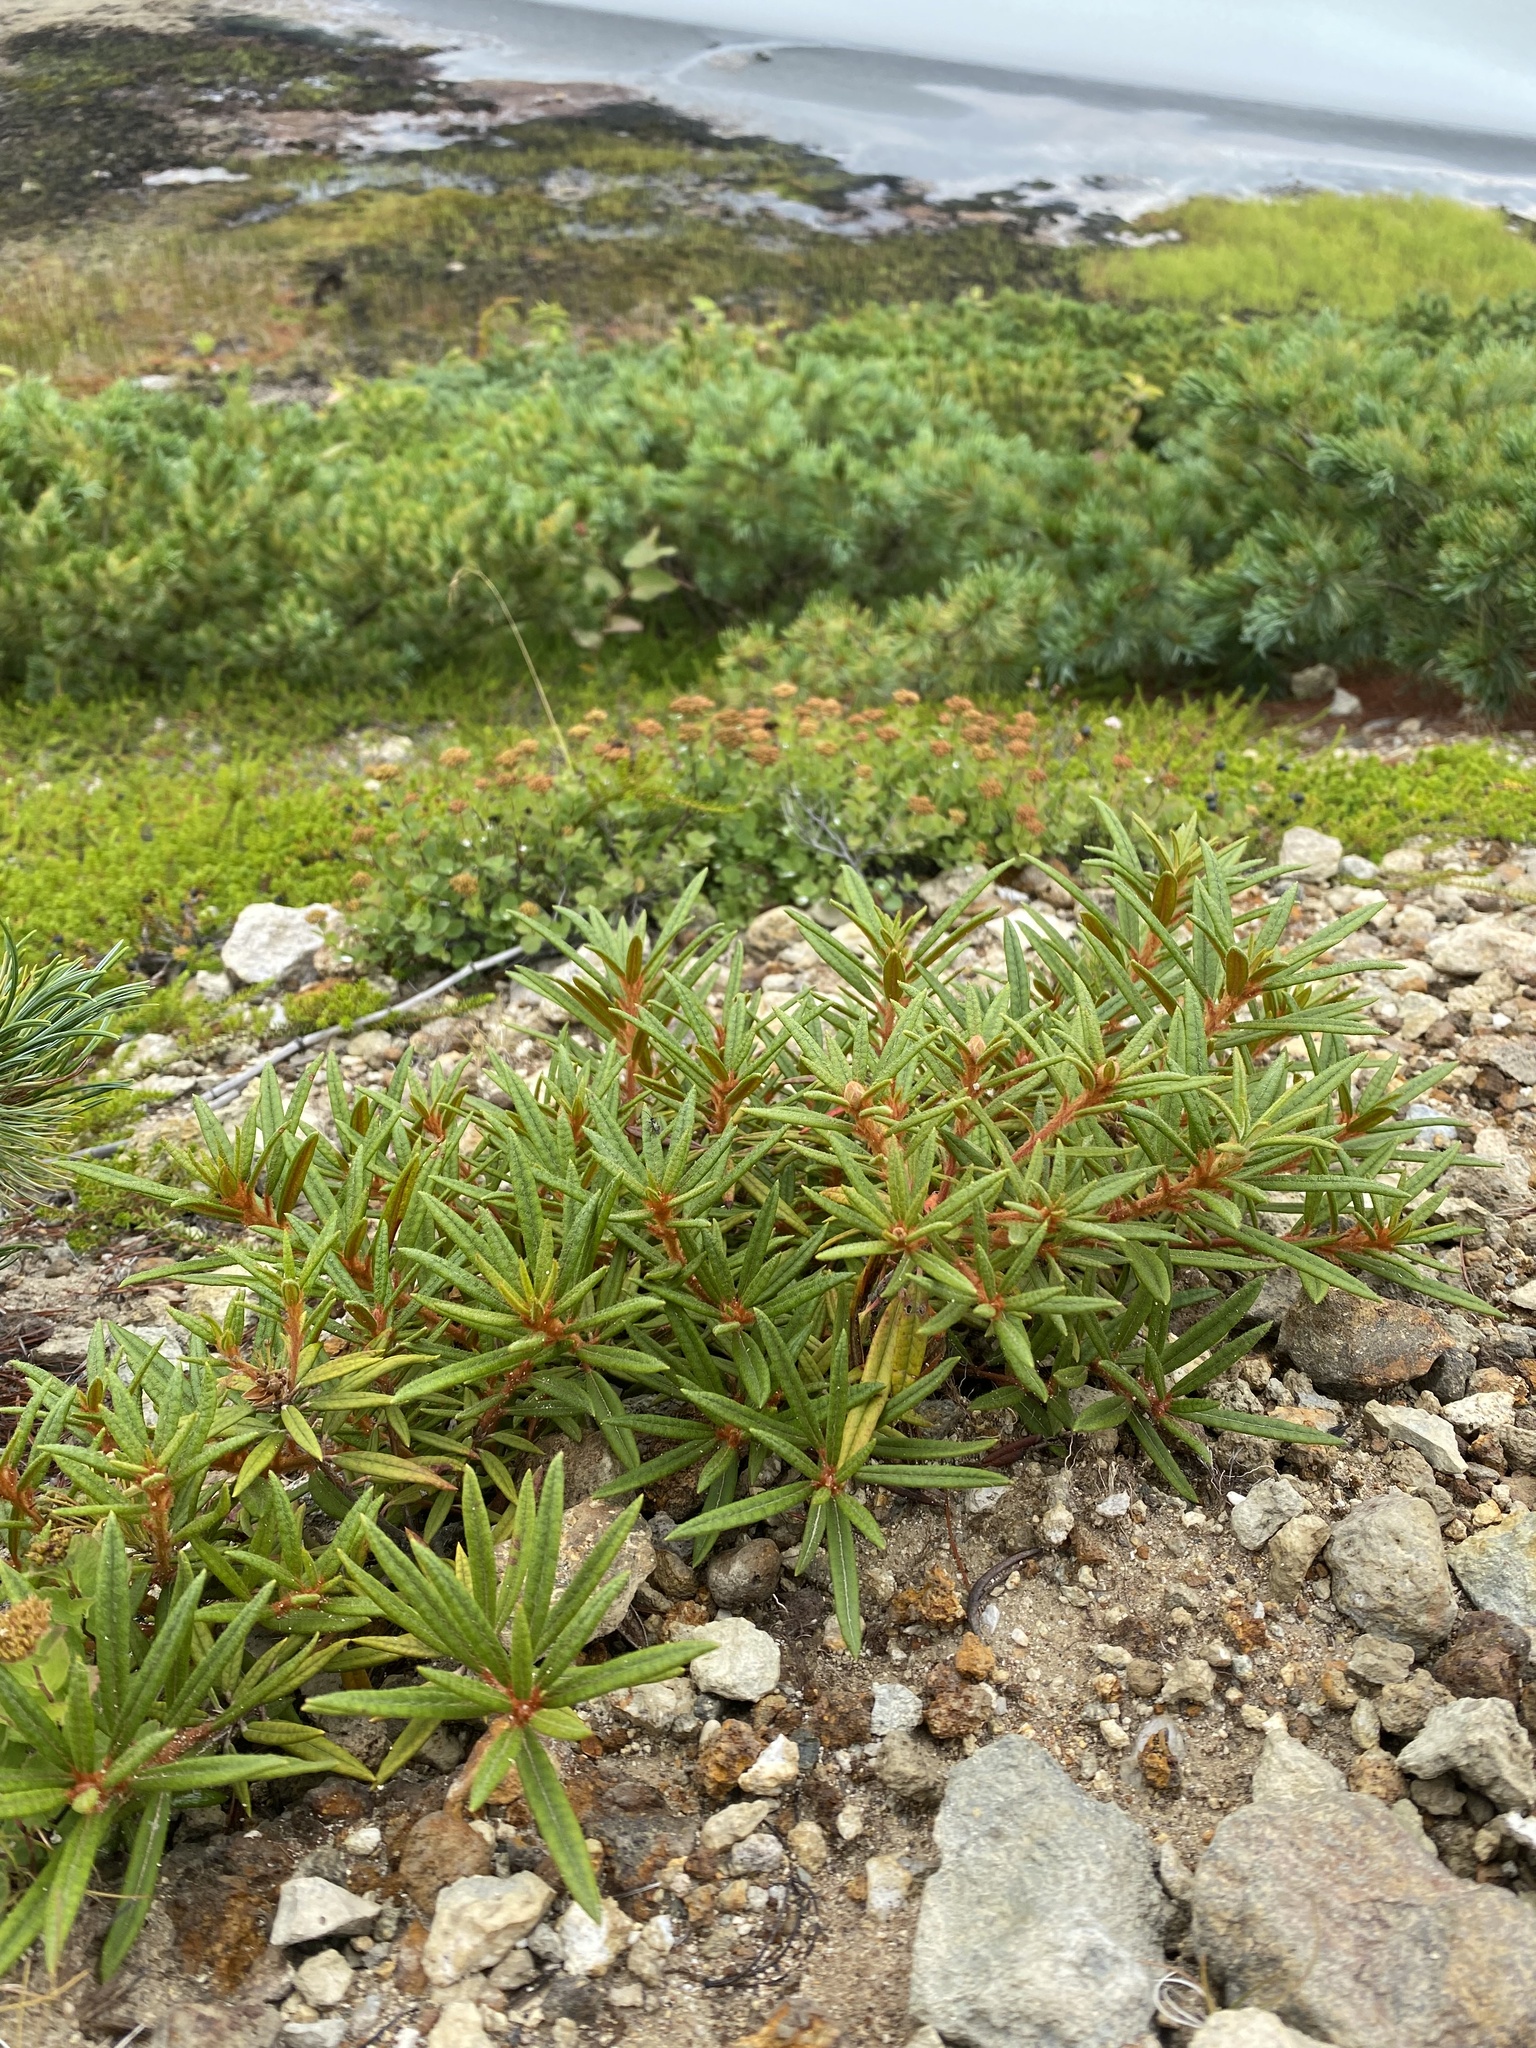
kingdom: Plantae
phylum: Tracheophyta
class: Magnoliopsida
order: Ericales
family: Ericaceae
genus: Rhododendron
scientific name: Rhododendron tomentosum
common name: Marsh labrador tea
